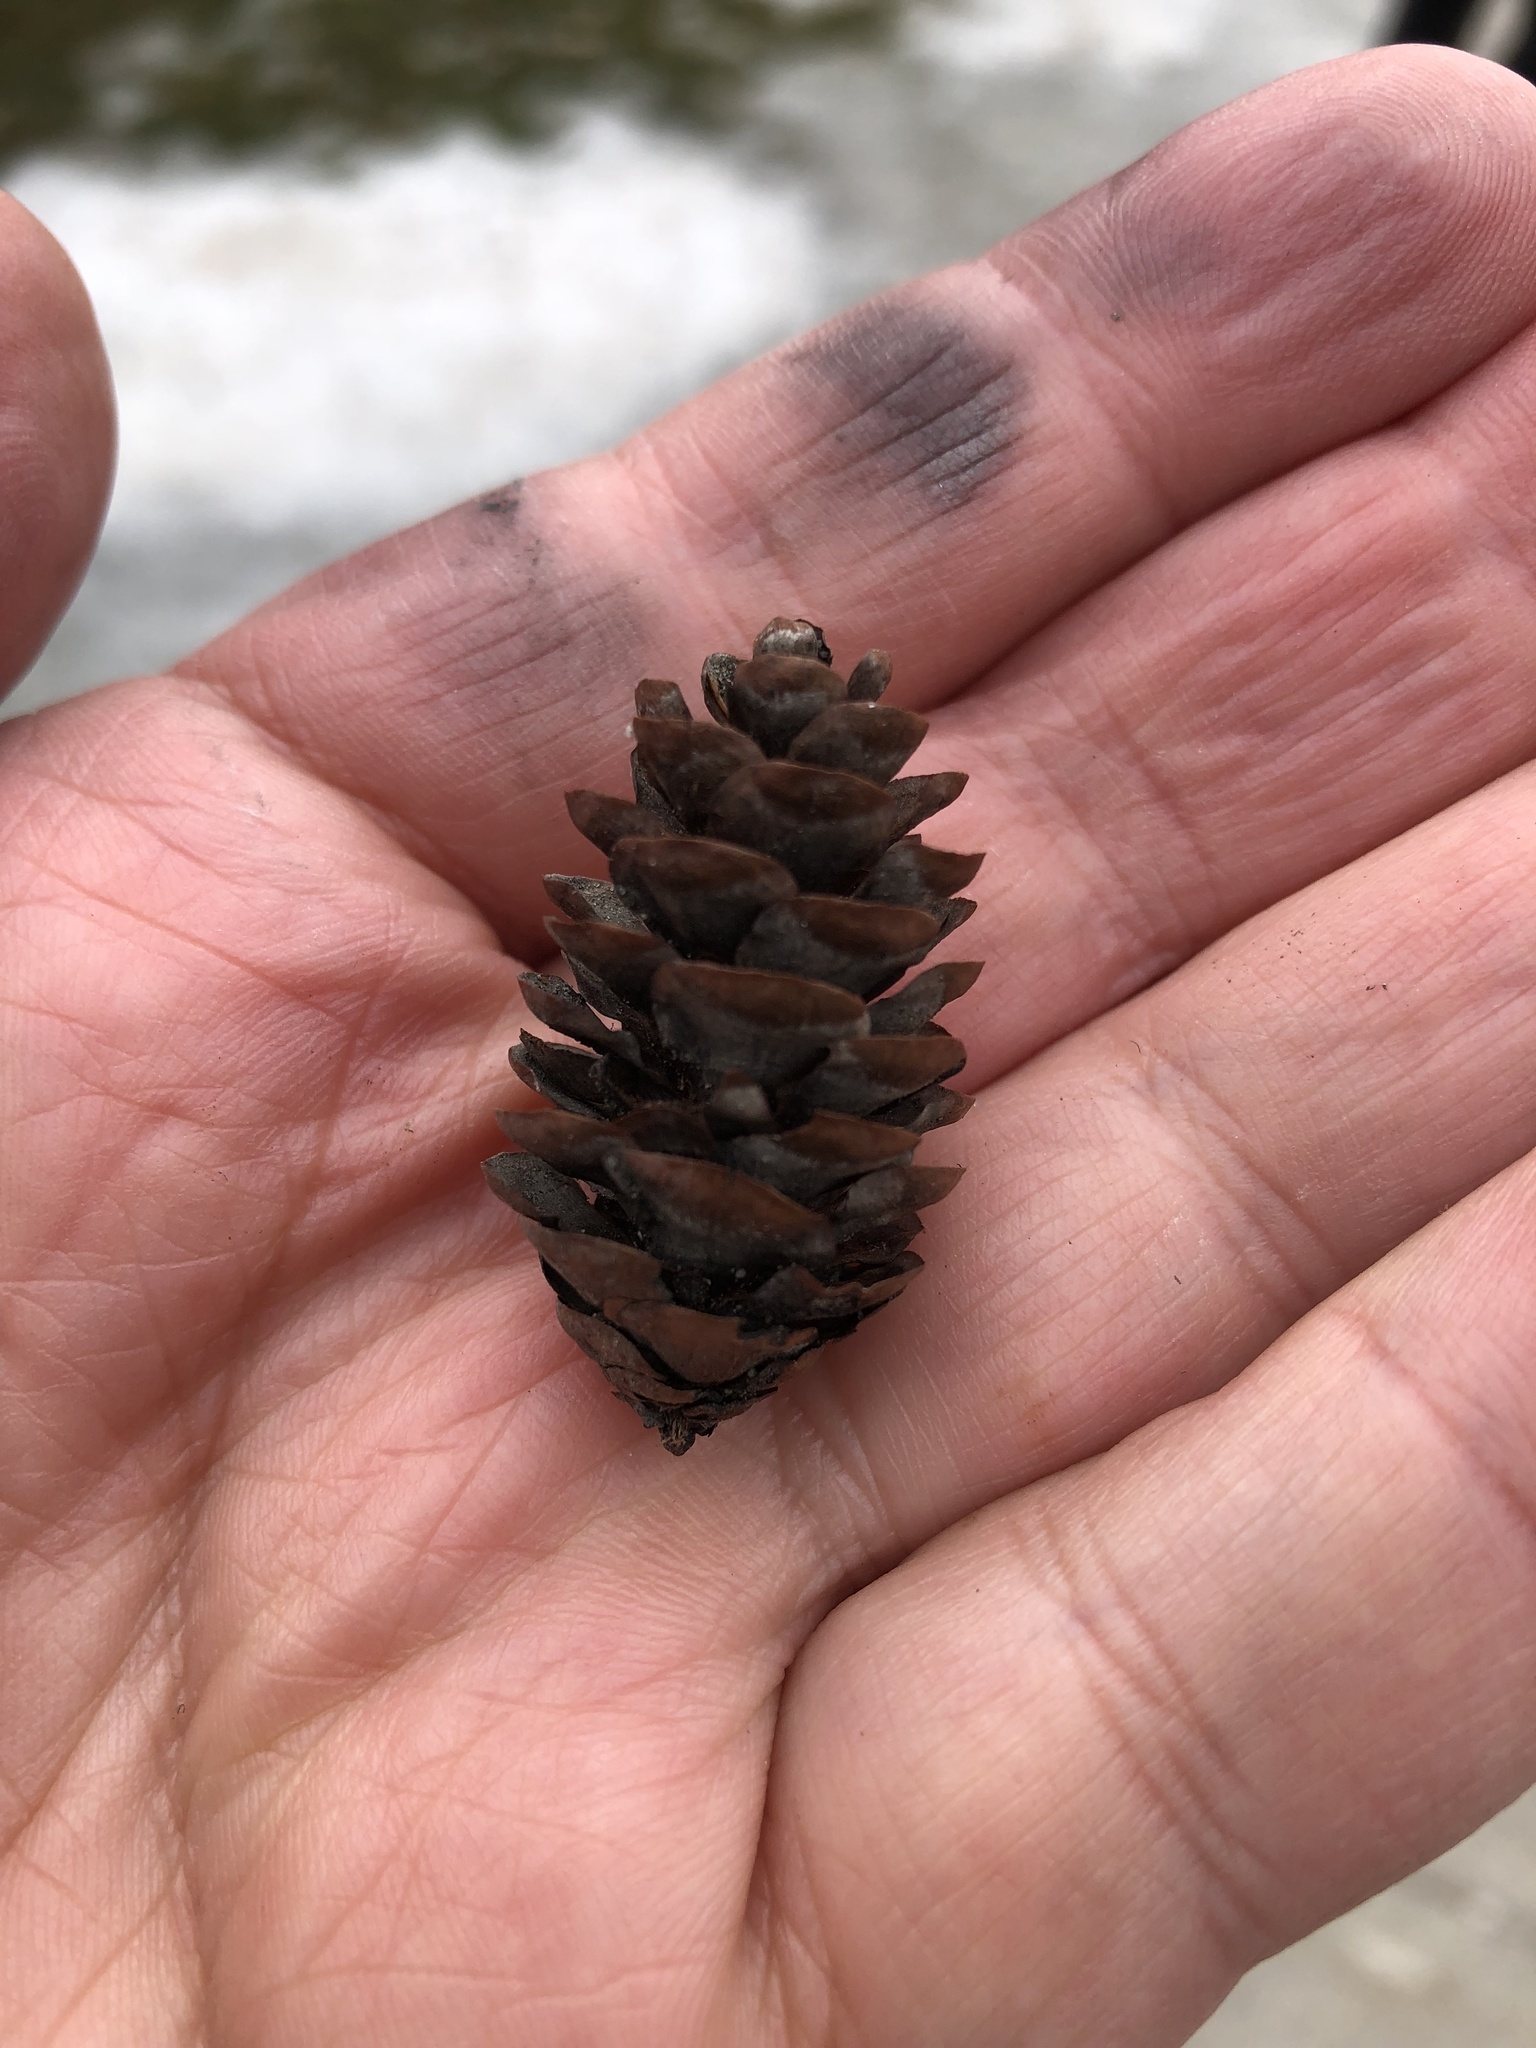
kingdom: Plantae
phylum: Tracheophyta
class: Pinopsida
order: Pinales
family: Pinaceae
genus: Picea
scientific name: Picea glauca
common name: White spruce
